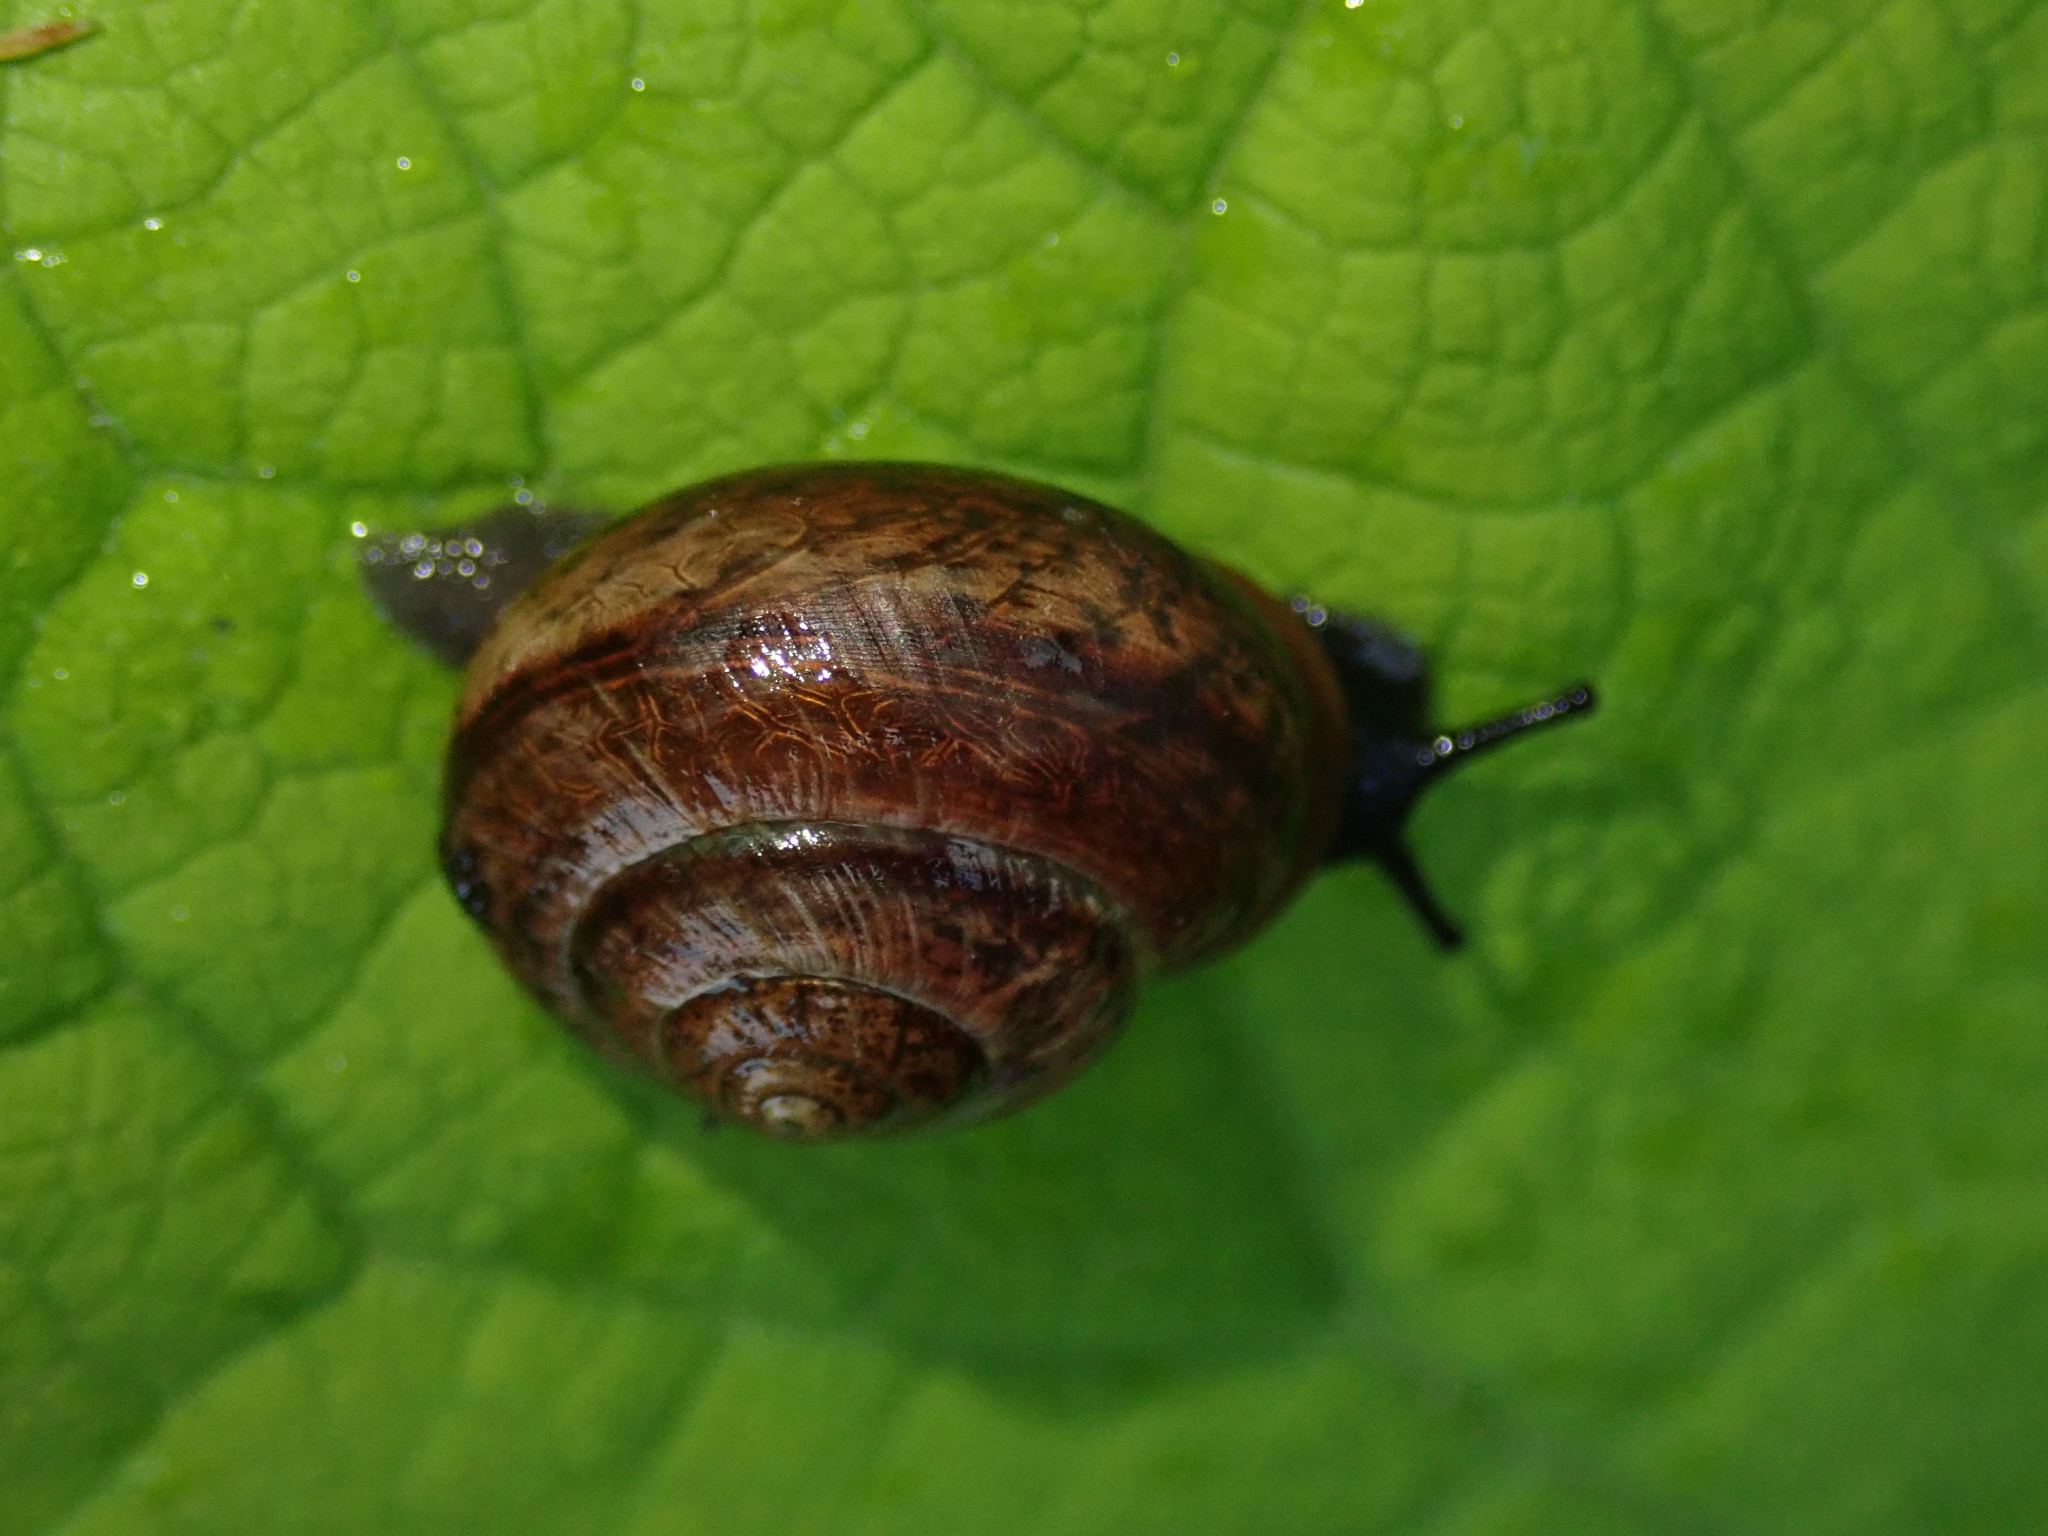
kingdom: Animalia
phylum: Mollusca
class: Gastropoda
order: Stylommatophora
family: Helicidae
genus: Arianta
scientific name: Arianta arbustorum
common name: Copse snail
